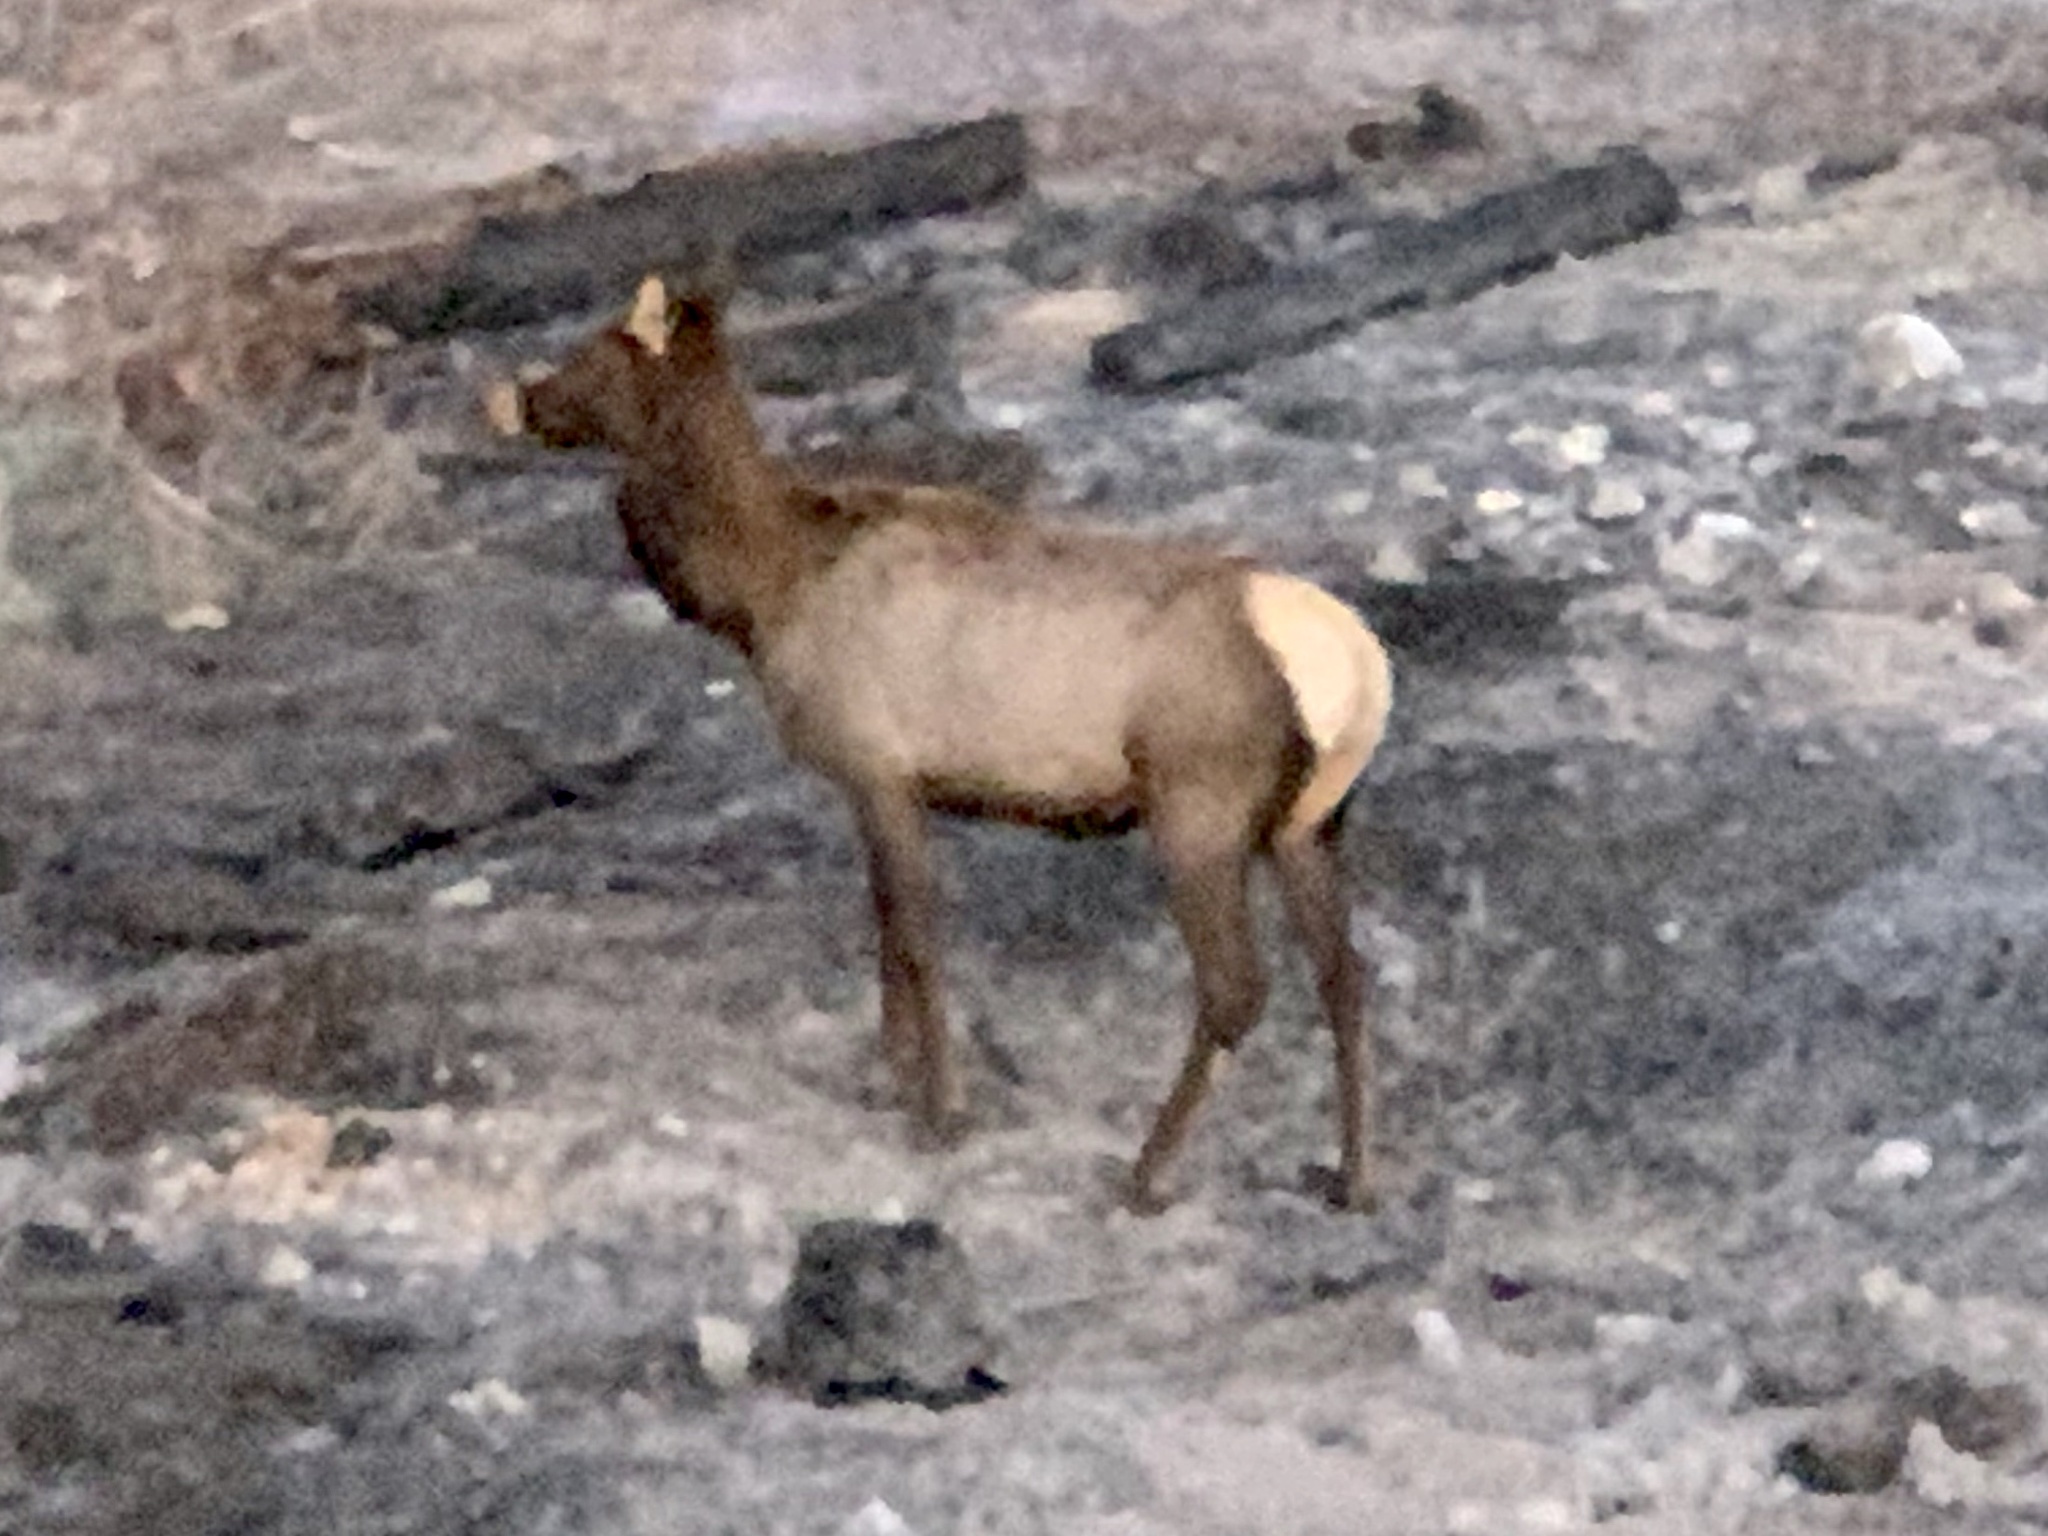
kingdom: Animalia
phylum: Chordata
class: Mammalia
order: Artiodactyla
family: Cervidae
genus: Cervus
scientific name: Cervus elaphus
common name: Red deer
